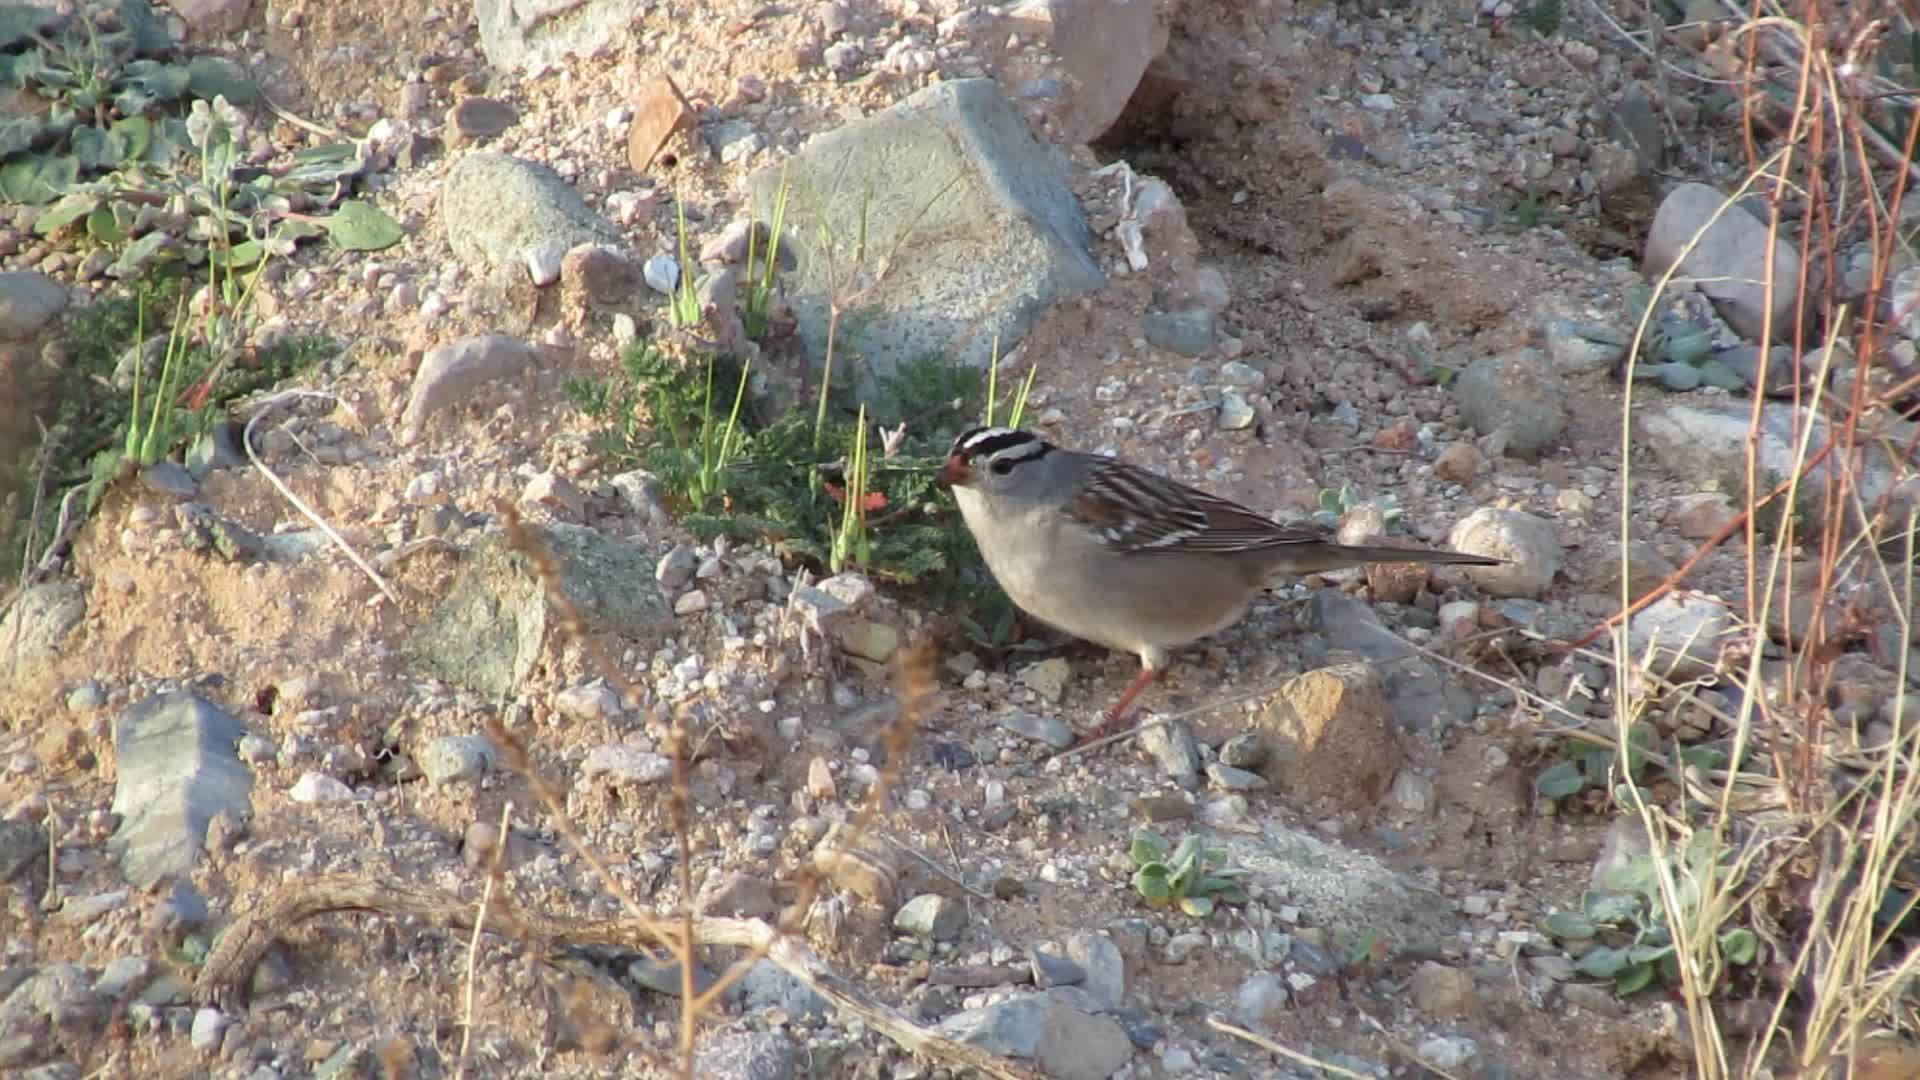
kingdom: Animalia
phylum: Chordata
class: Aves
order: Passeriformes
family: Passerellidae
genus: Zonotrichia
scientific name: Zonotrichia leucophrys
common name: White-crowned sparrow
